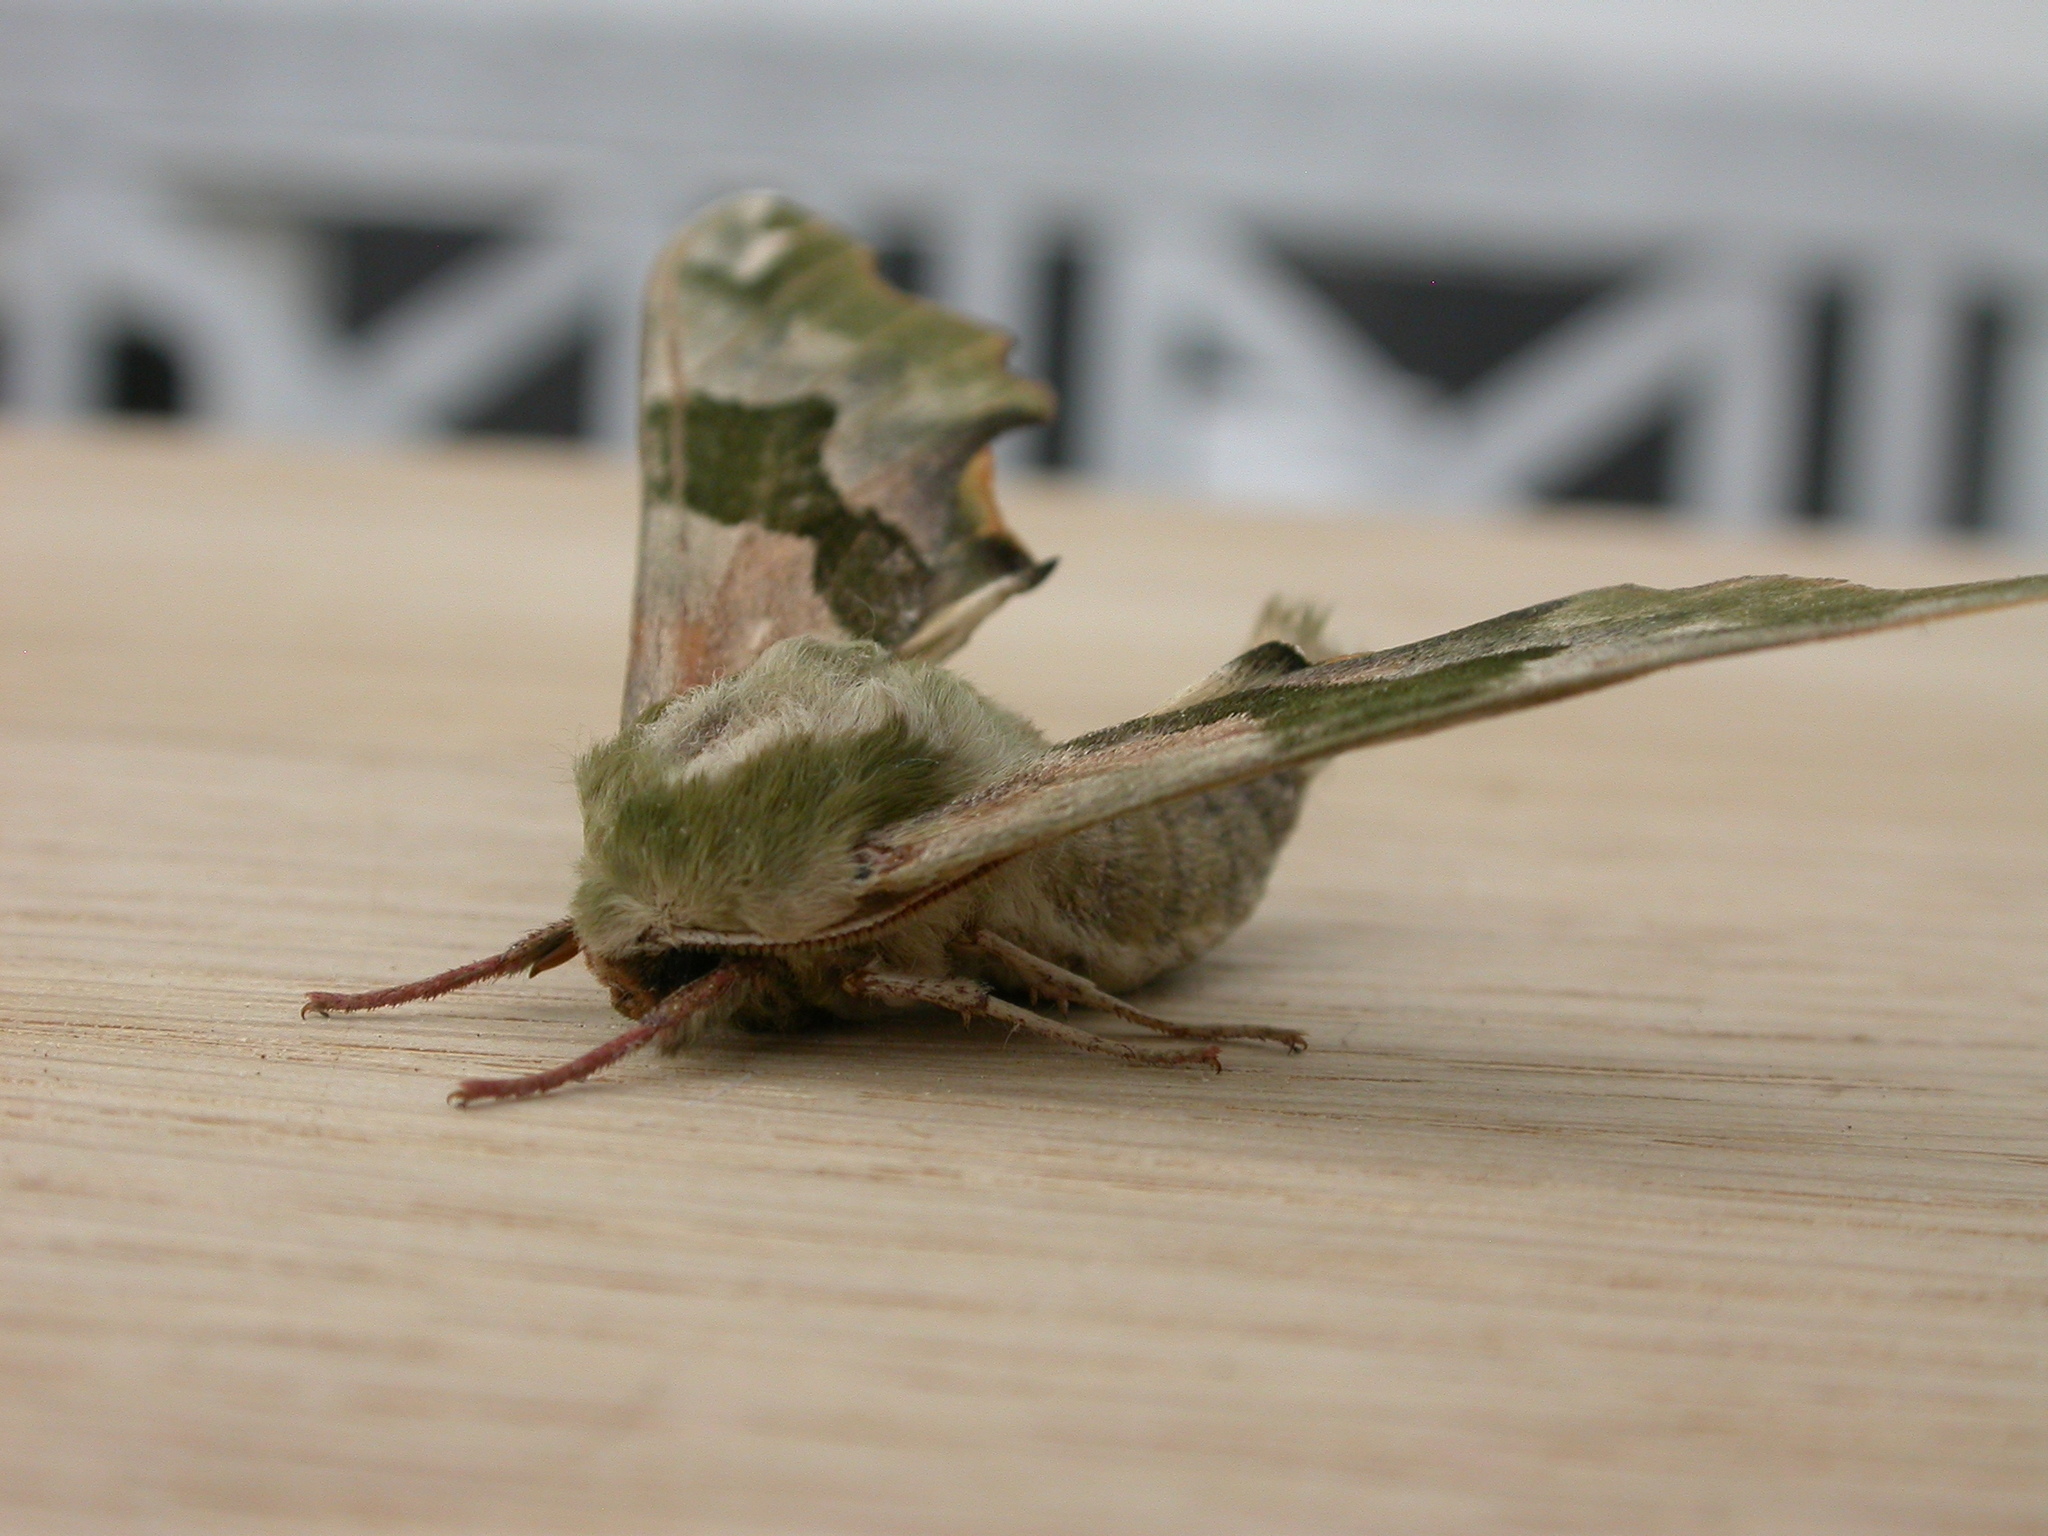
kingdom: Animalia
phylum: Arthropoda
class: Insecta
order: Lepidoptera
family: Sphingidae
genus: Mimas
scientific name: Mimas tiliae
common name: Lime hawk-moth
